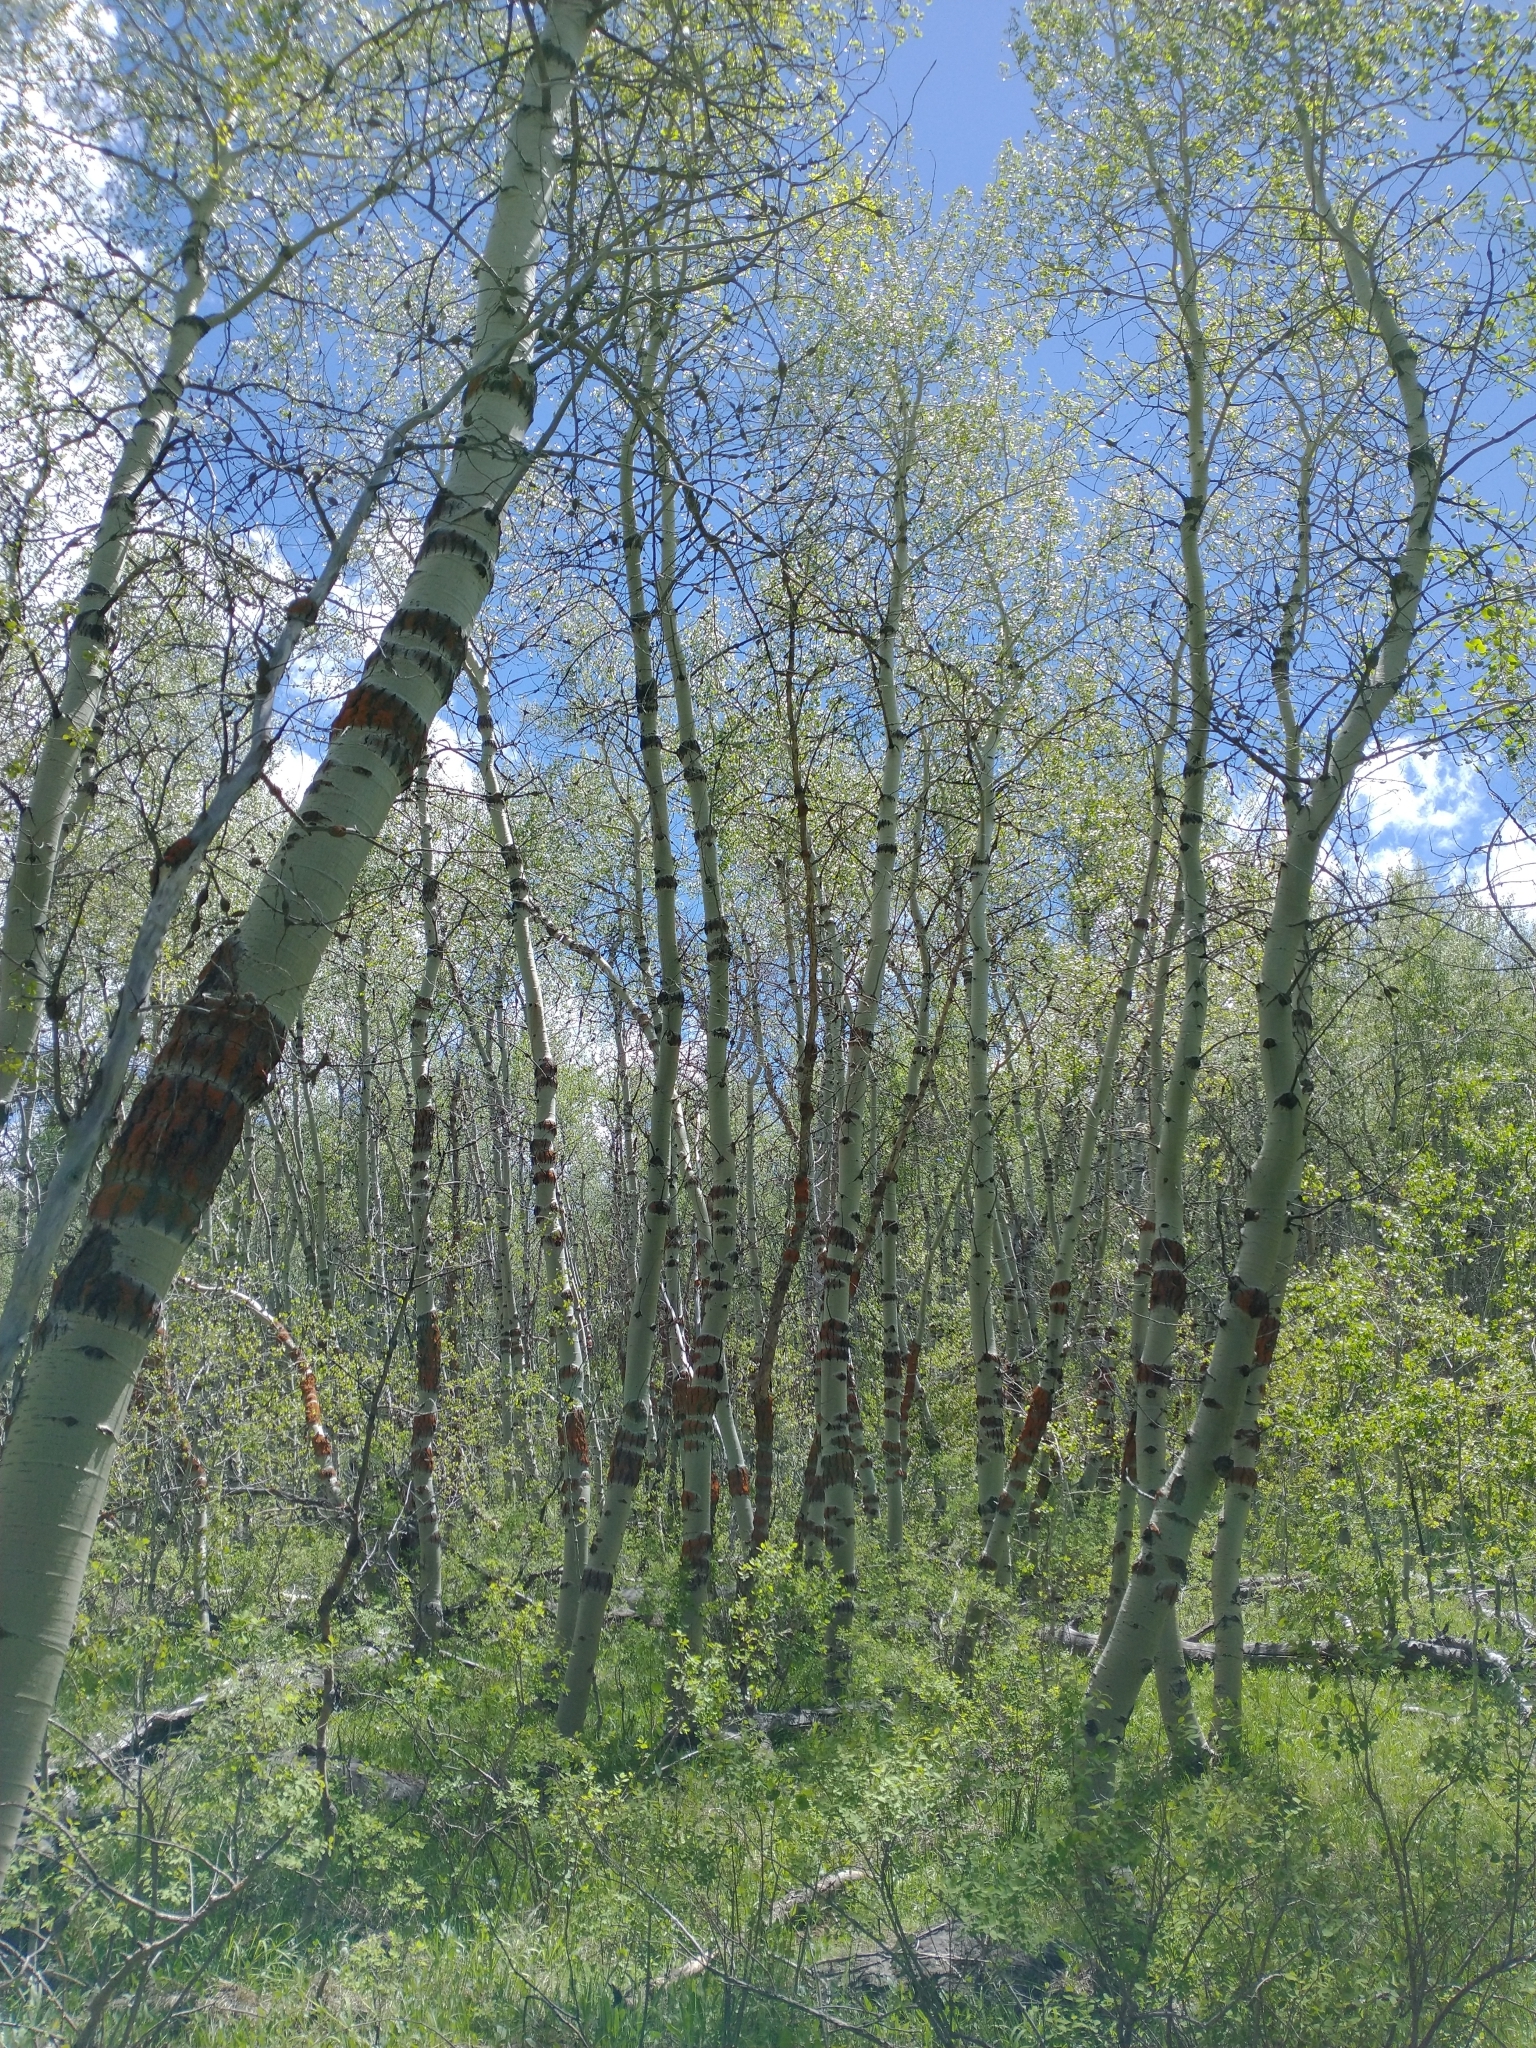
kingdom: Plantae
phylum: Tracheophyta
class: Magnoliopsida
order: Malpighiales
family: Salicaceae
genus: Populus
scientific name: Populus tremuloides
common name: Quaking aspen
